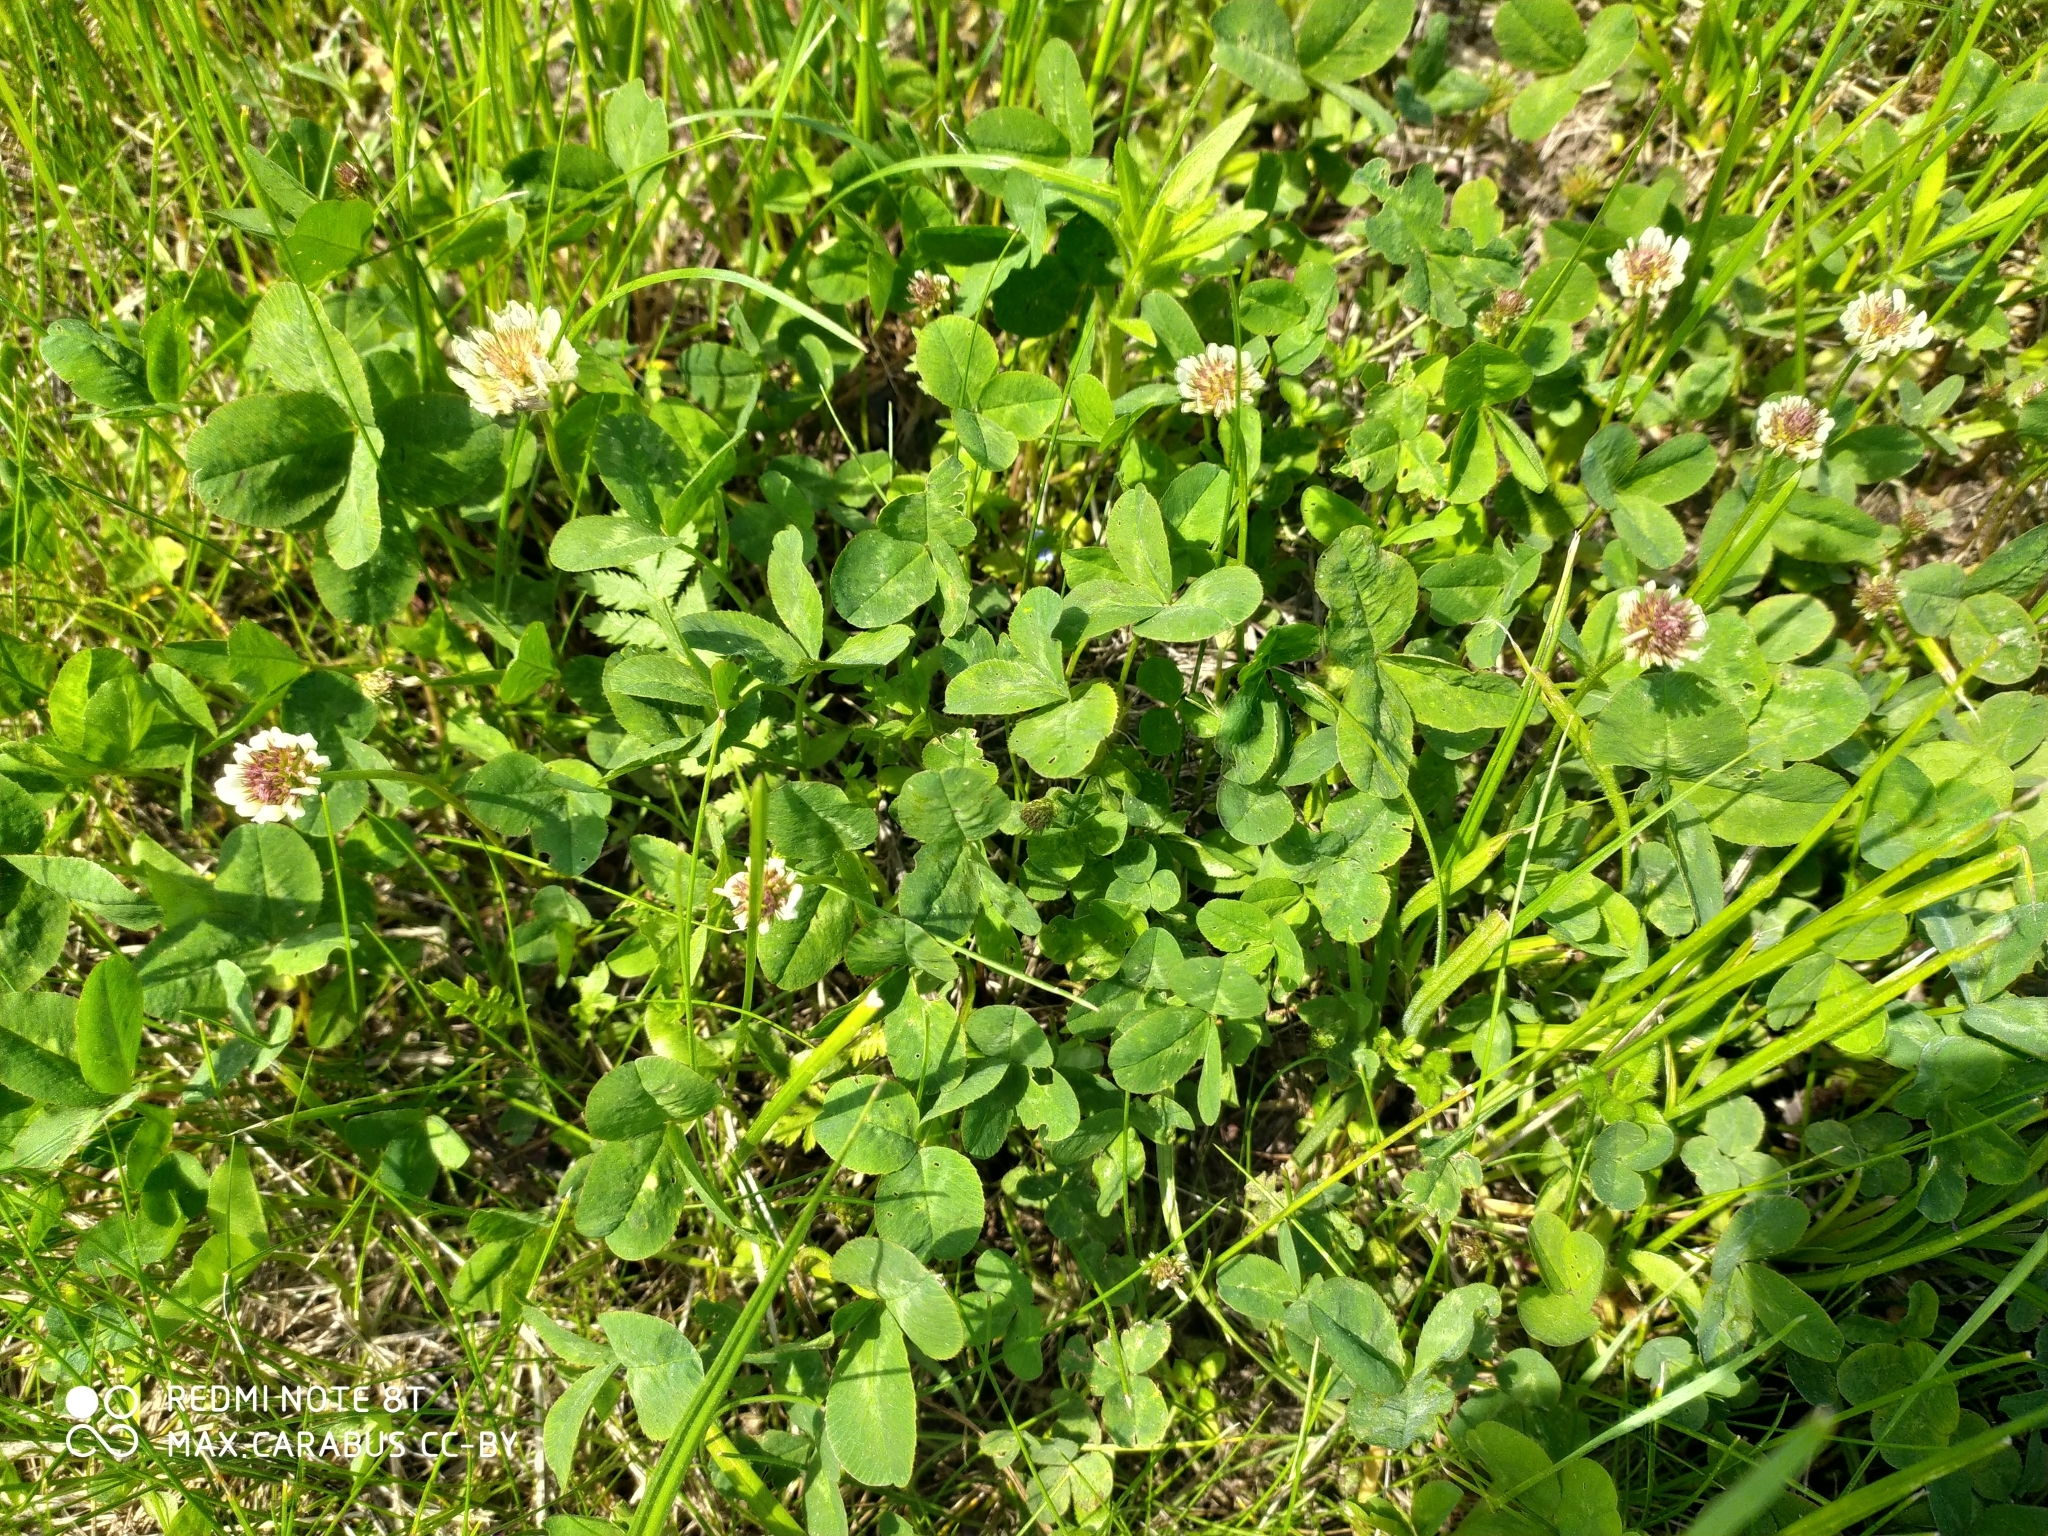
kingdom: Plantae
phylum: Tracheophyta
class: Magnoliopsida
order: Fabales
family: Fabaceae
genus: Trifolium
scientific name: Trifolium repens
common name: White clover
